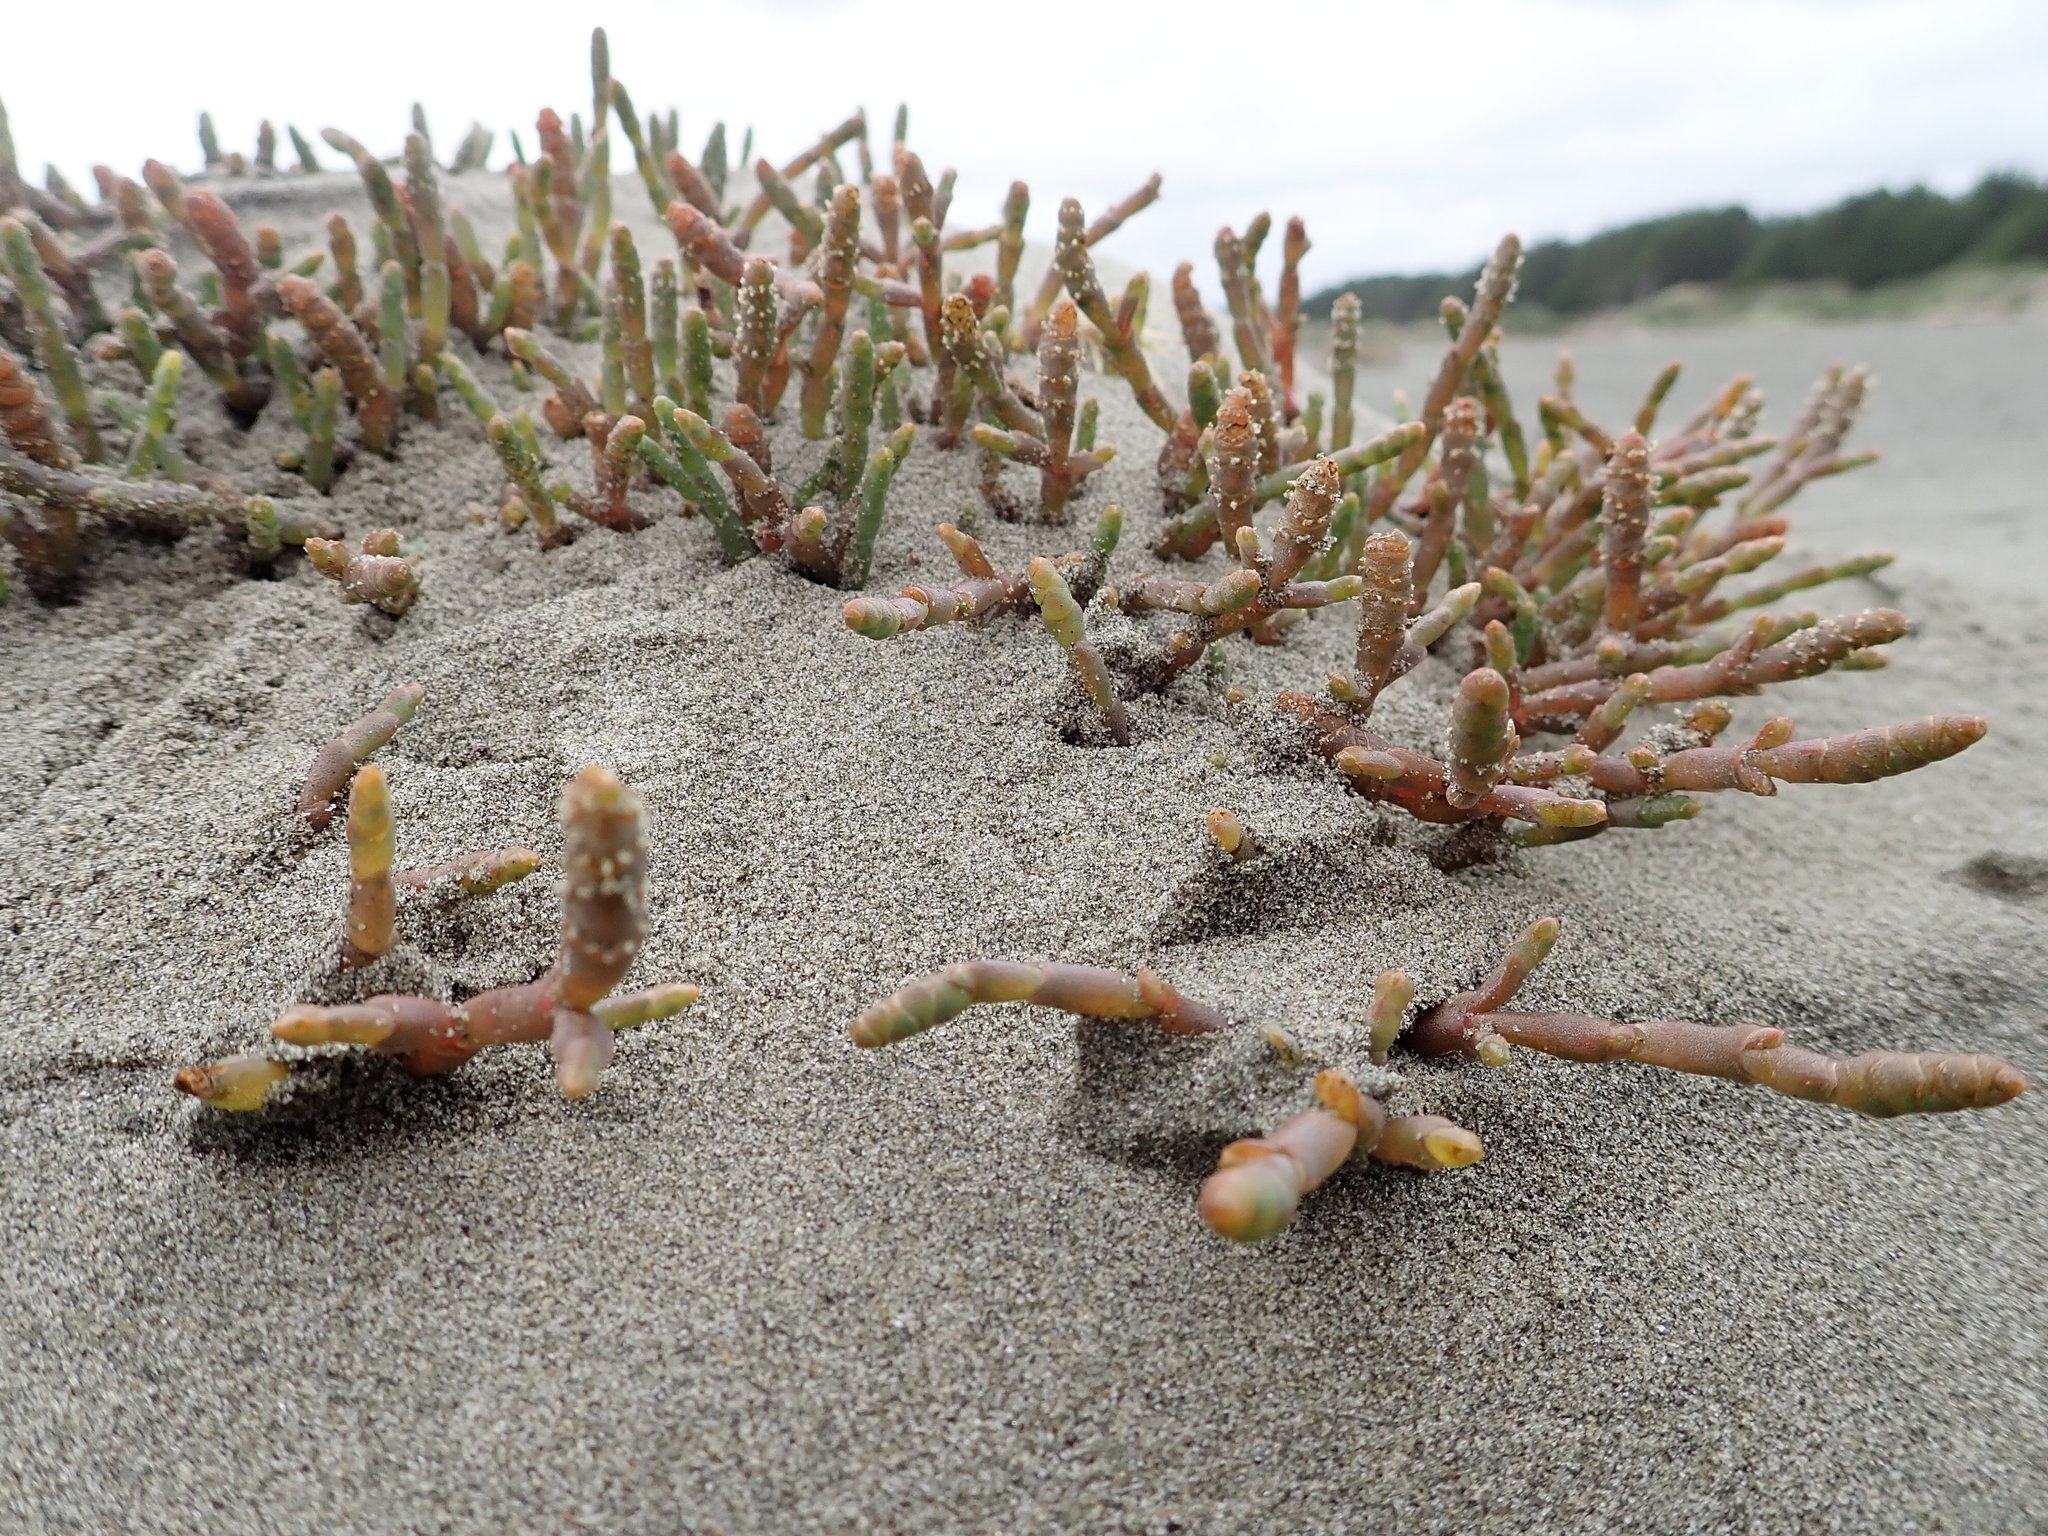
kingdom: Plantae
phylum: Tracheophyta
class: Magnoliopsida
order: Caryophyllales
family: Amaranthaceae
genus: Salicornia
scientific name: Salicornia quinqueflora
